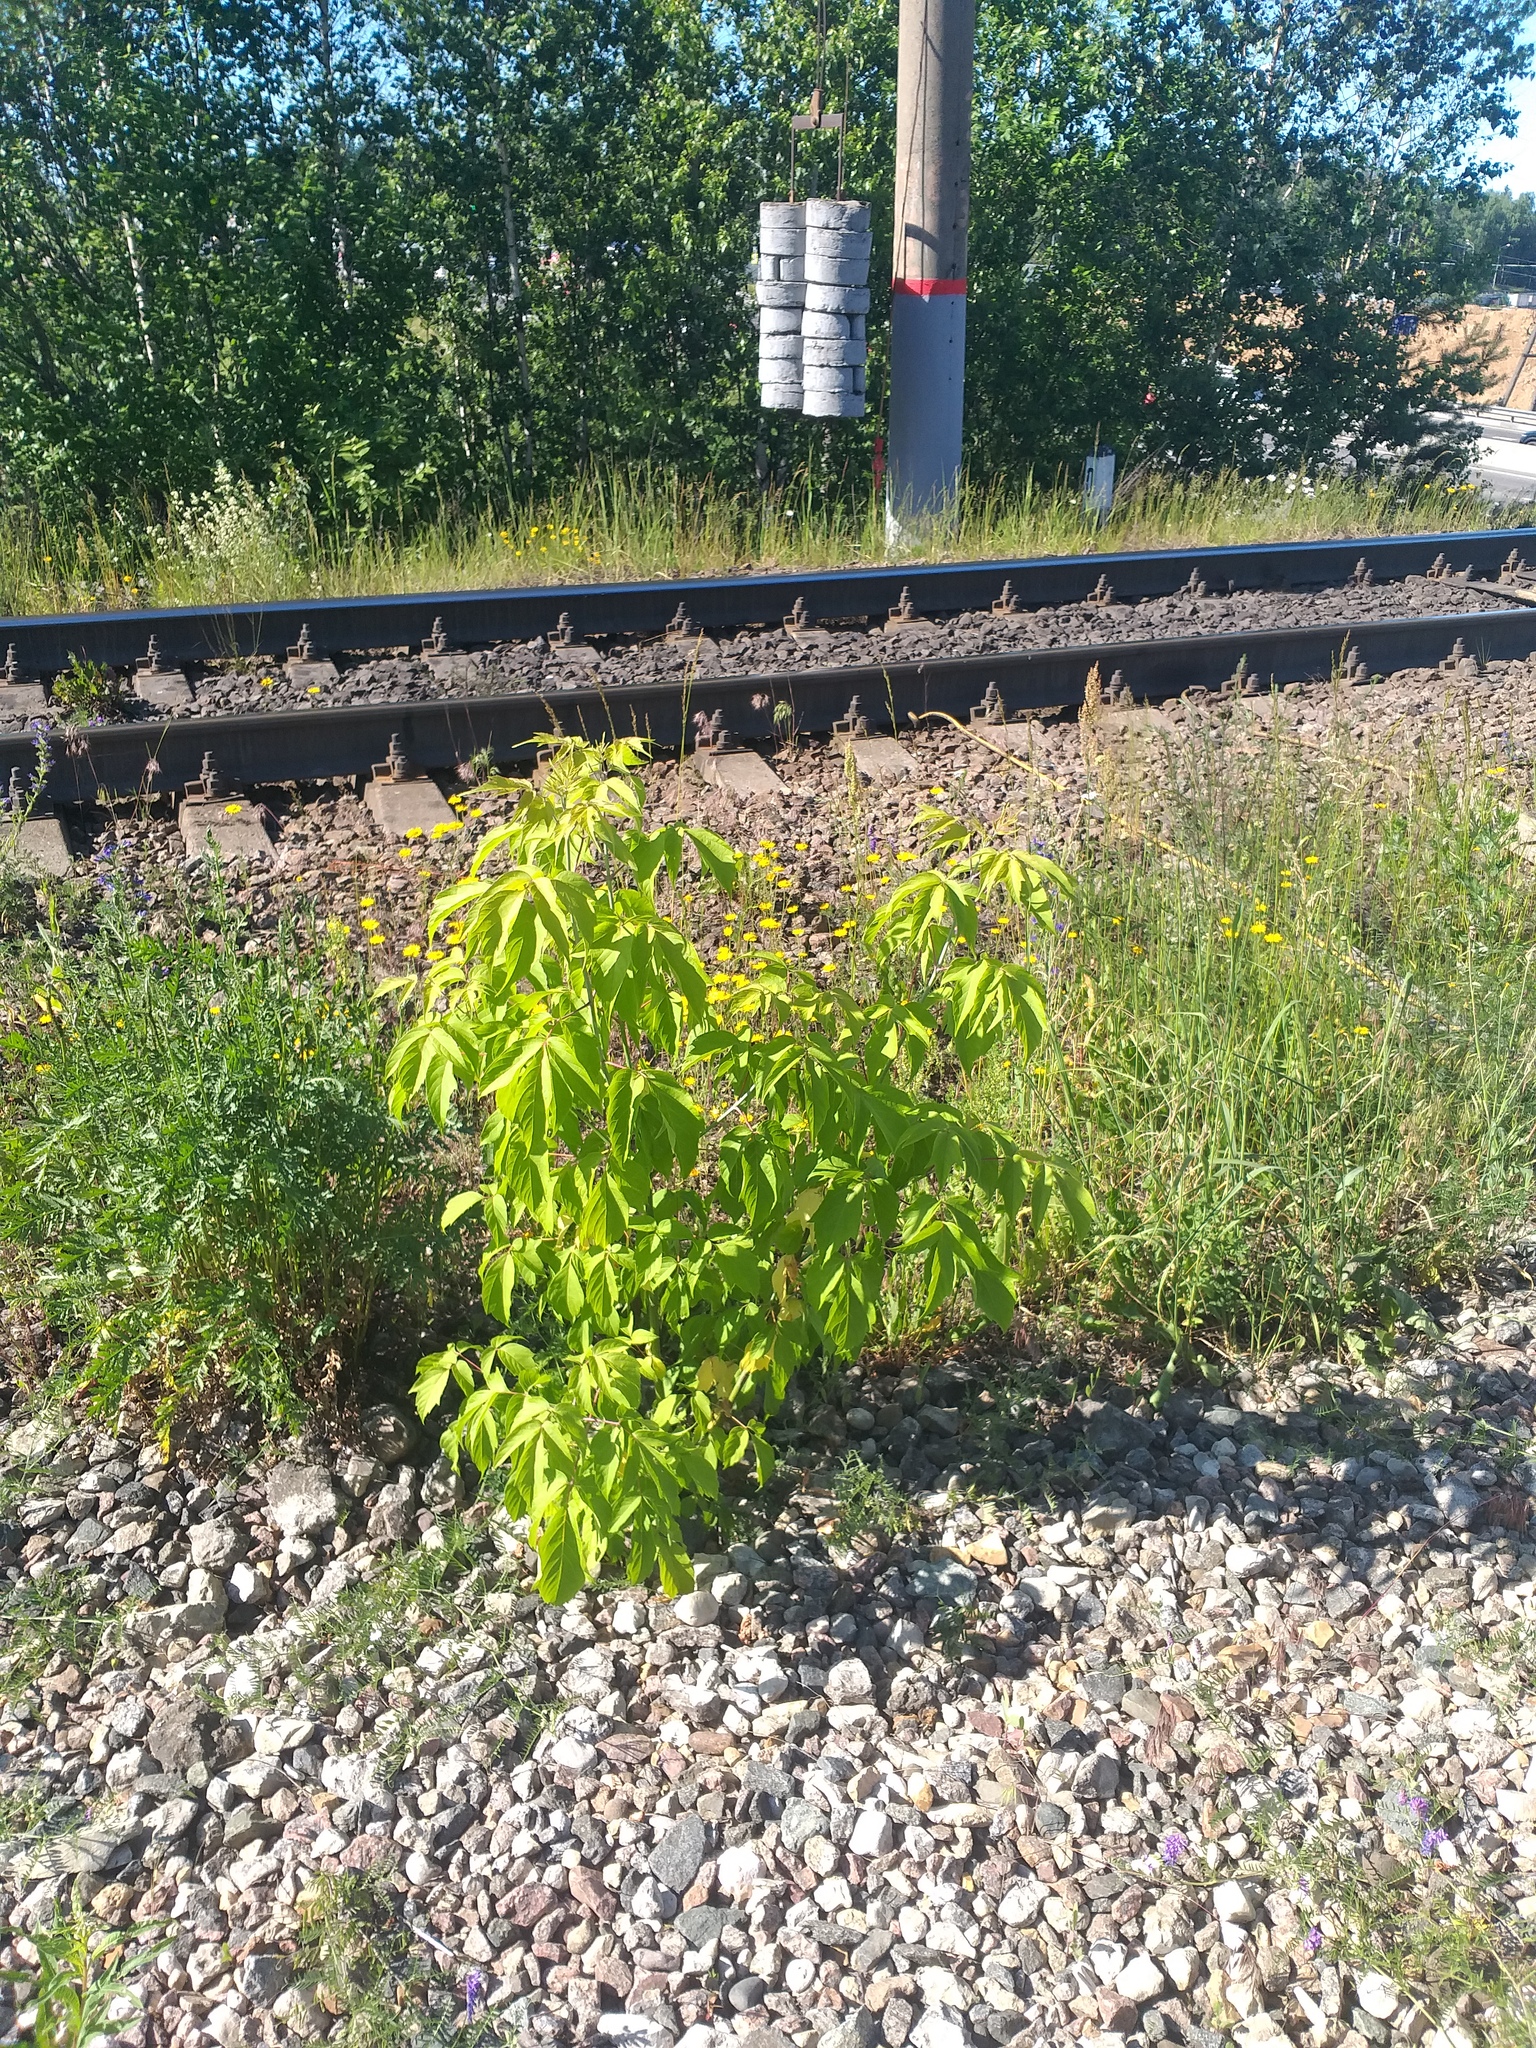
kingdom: Plantae
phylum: Tracheophyta
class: Magnoliopsida
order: Sapindales
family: Sapindaceae
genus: Acer
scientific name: Acer negundo
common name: Ashleaf maple
